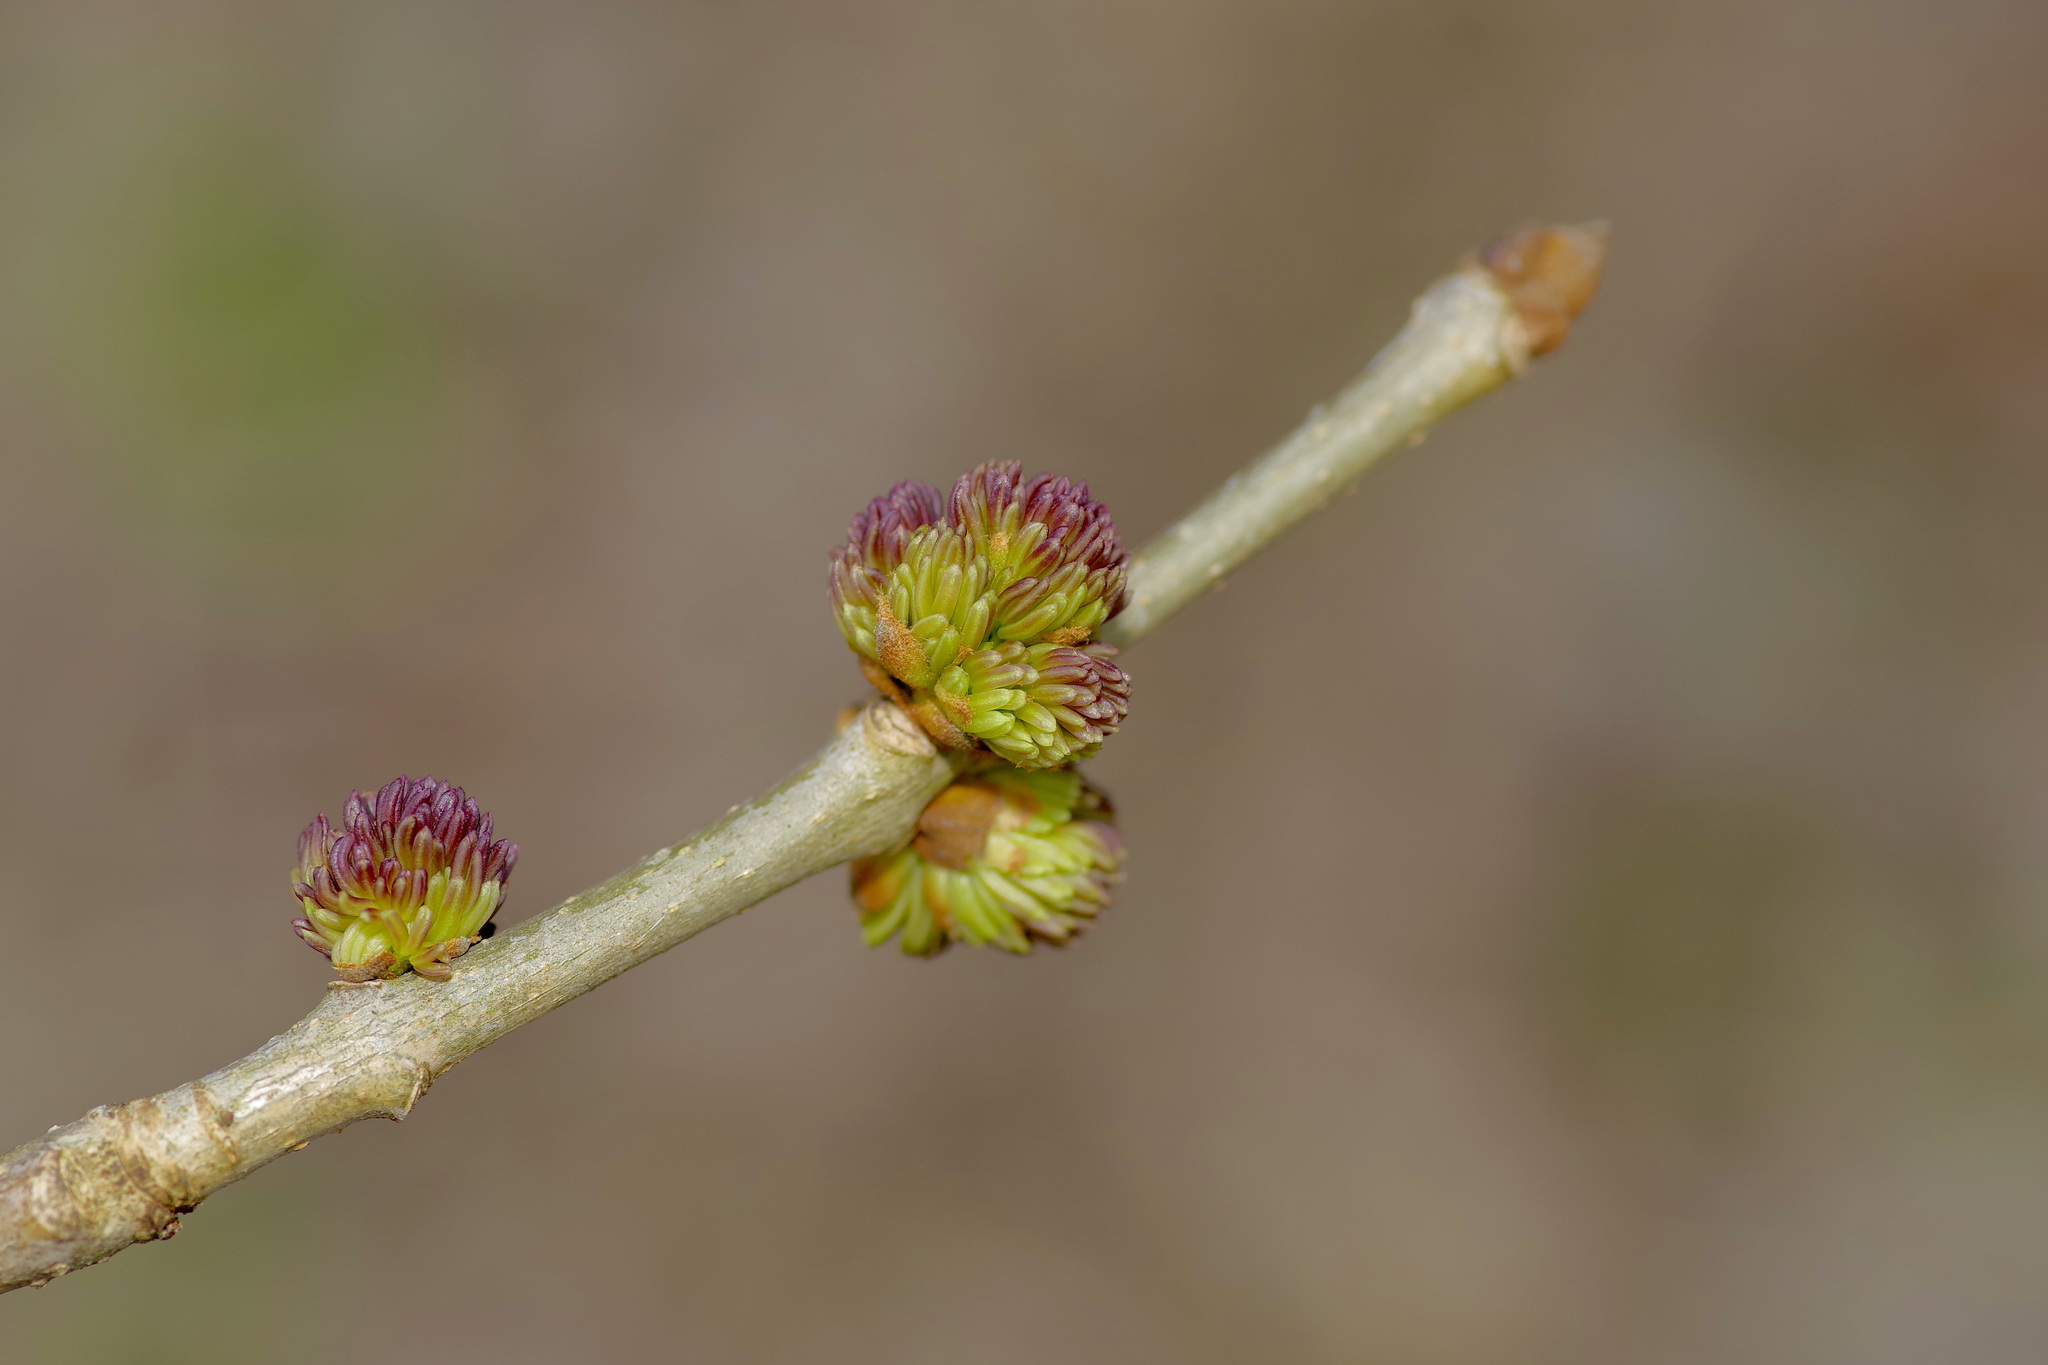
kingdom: Plantae
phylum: Tracheophyta
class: Magnoliopsida
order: Lamiales
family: Oleaceae
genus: Fraxinus
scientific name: Fraxinus albicans
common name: Texas ash
